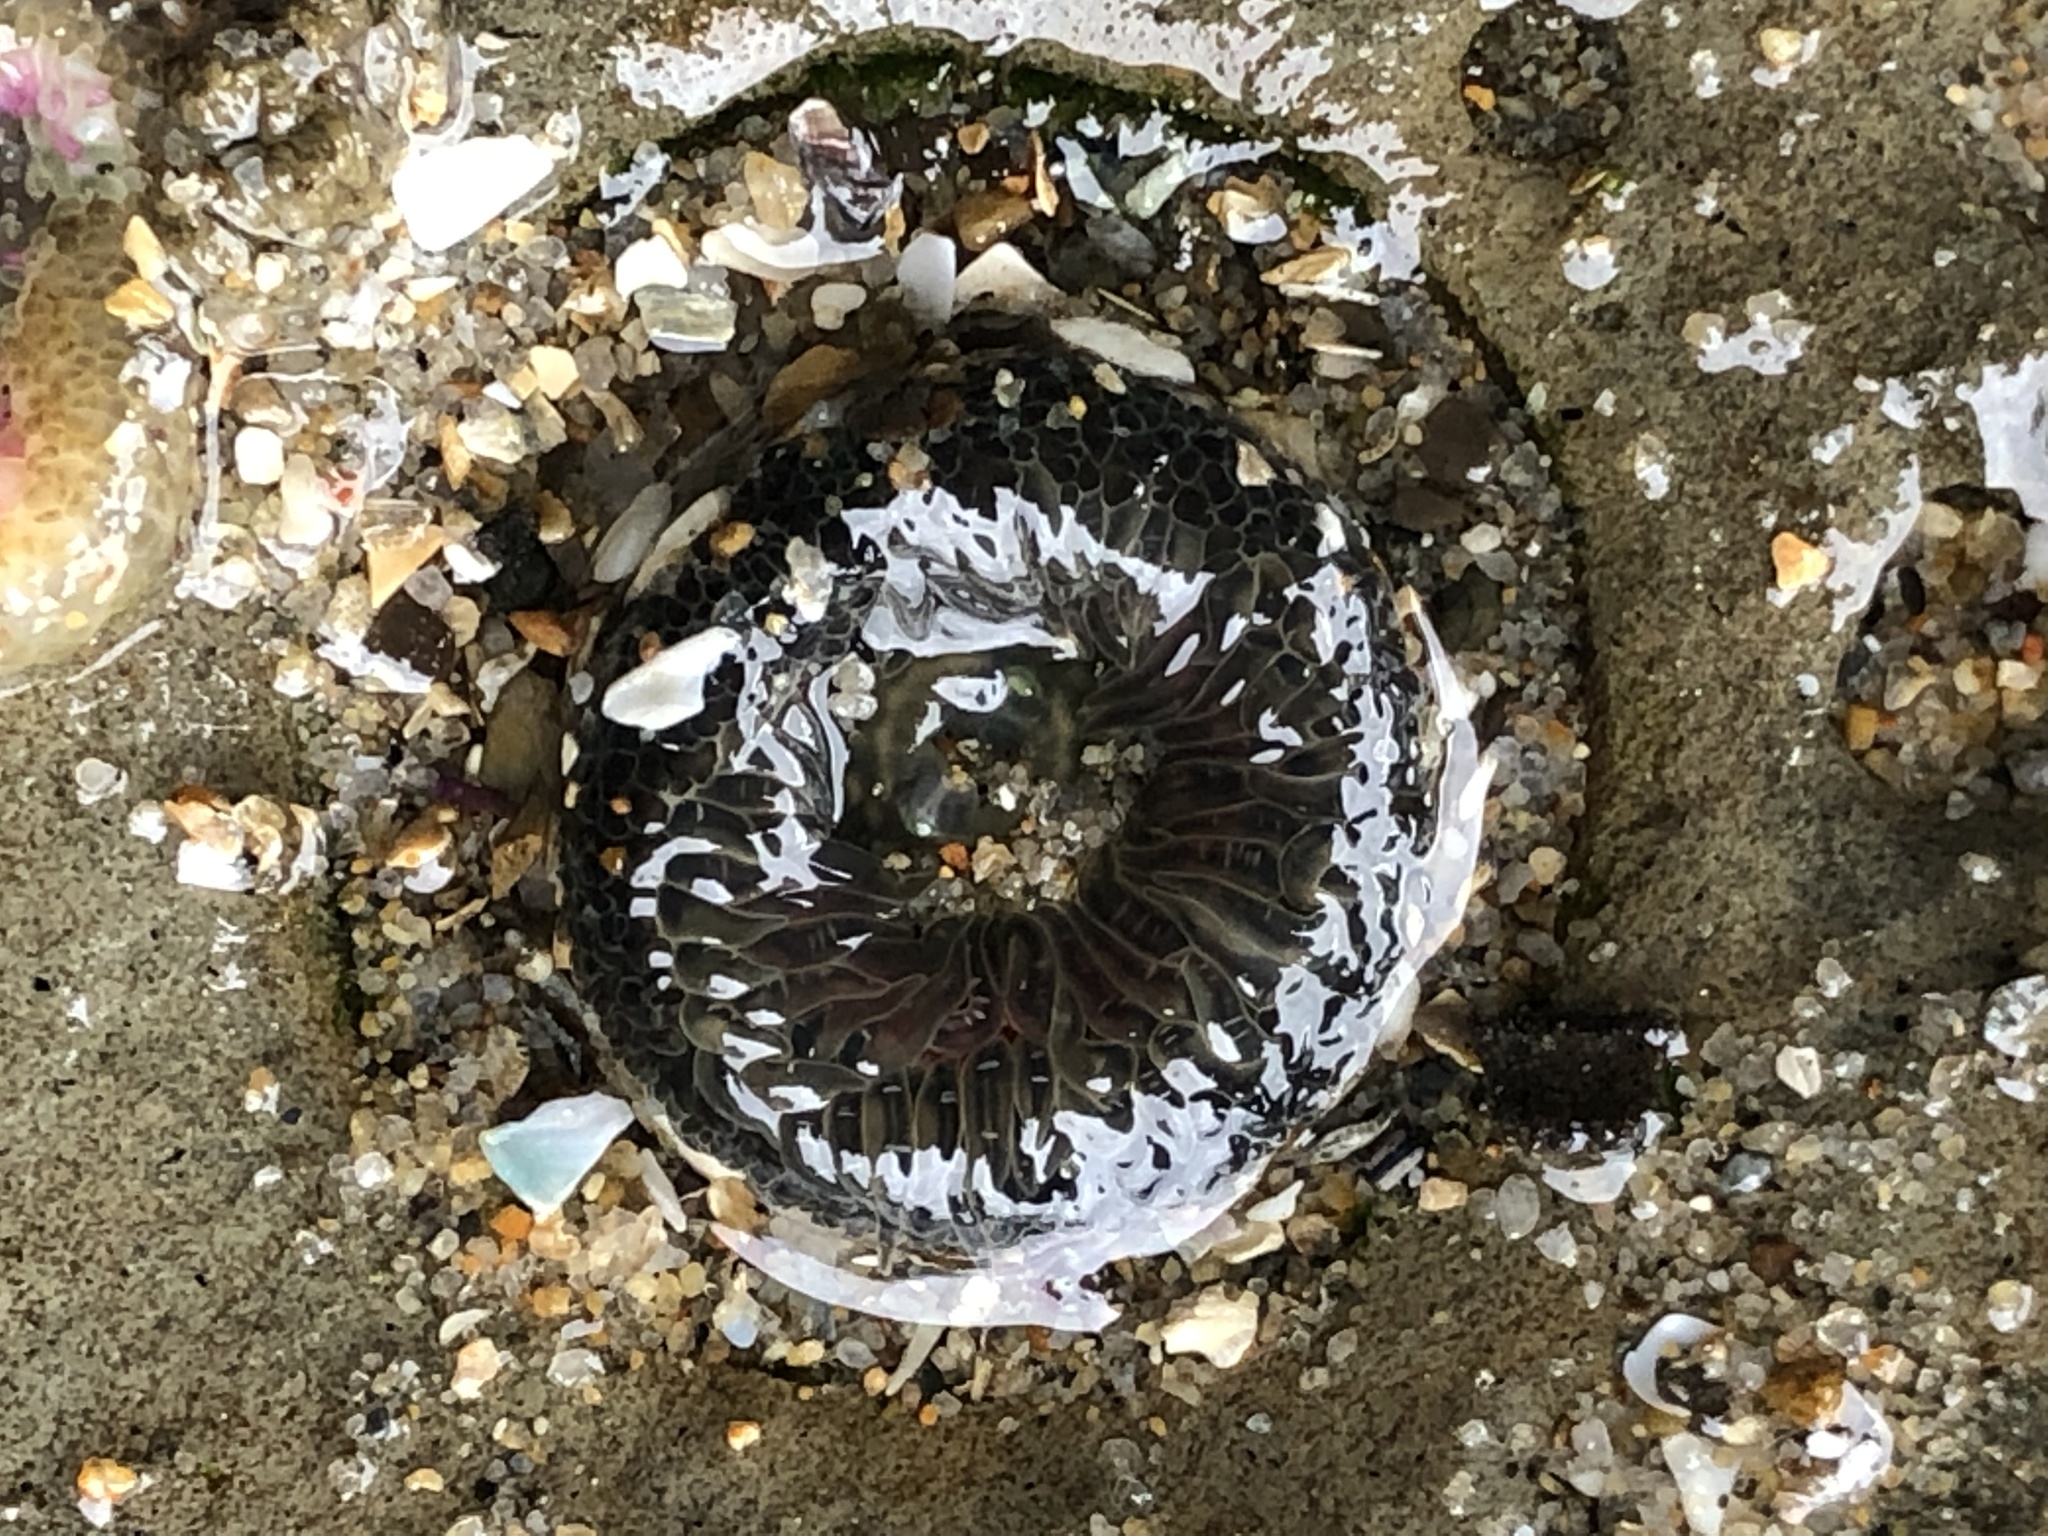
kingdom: Animalia
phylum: Cnidaria
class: Anthozoa
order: Actiniaria
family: Actiniidae
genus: Anthopleura
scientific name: Anthopleura artemisia
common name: Buried sea anemone
